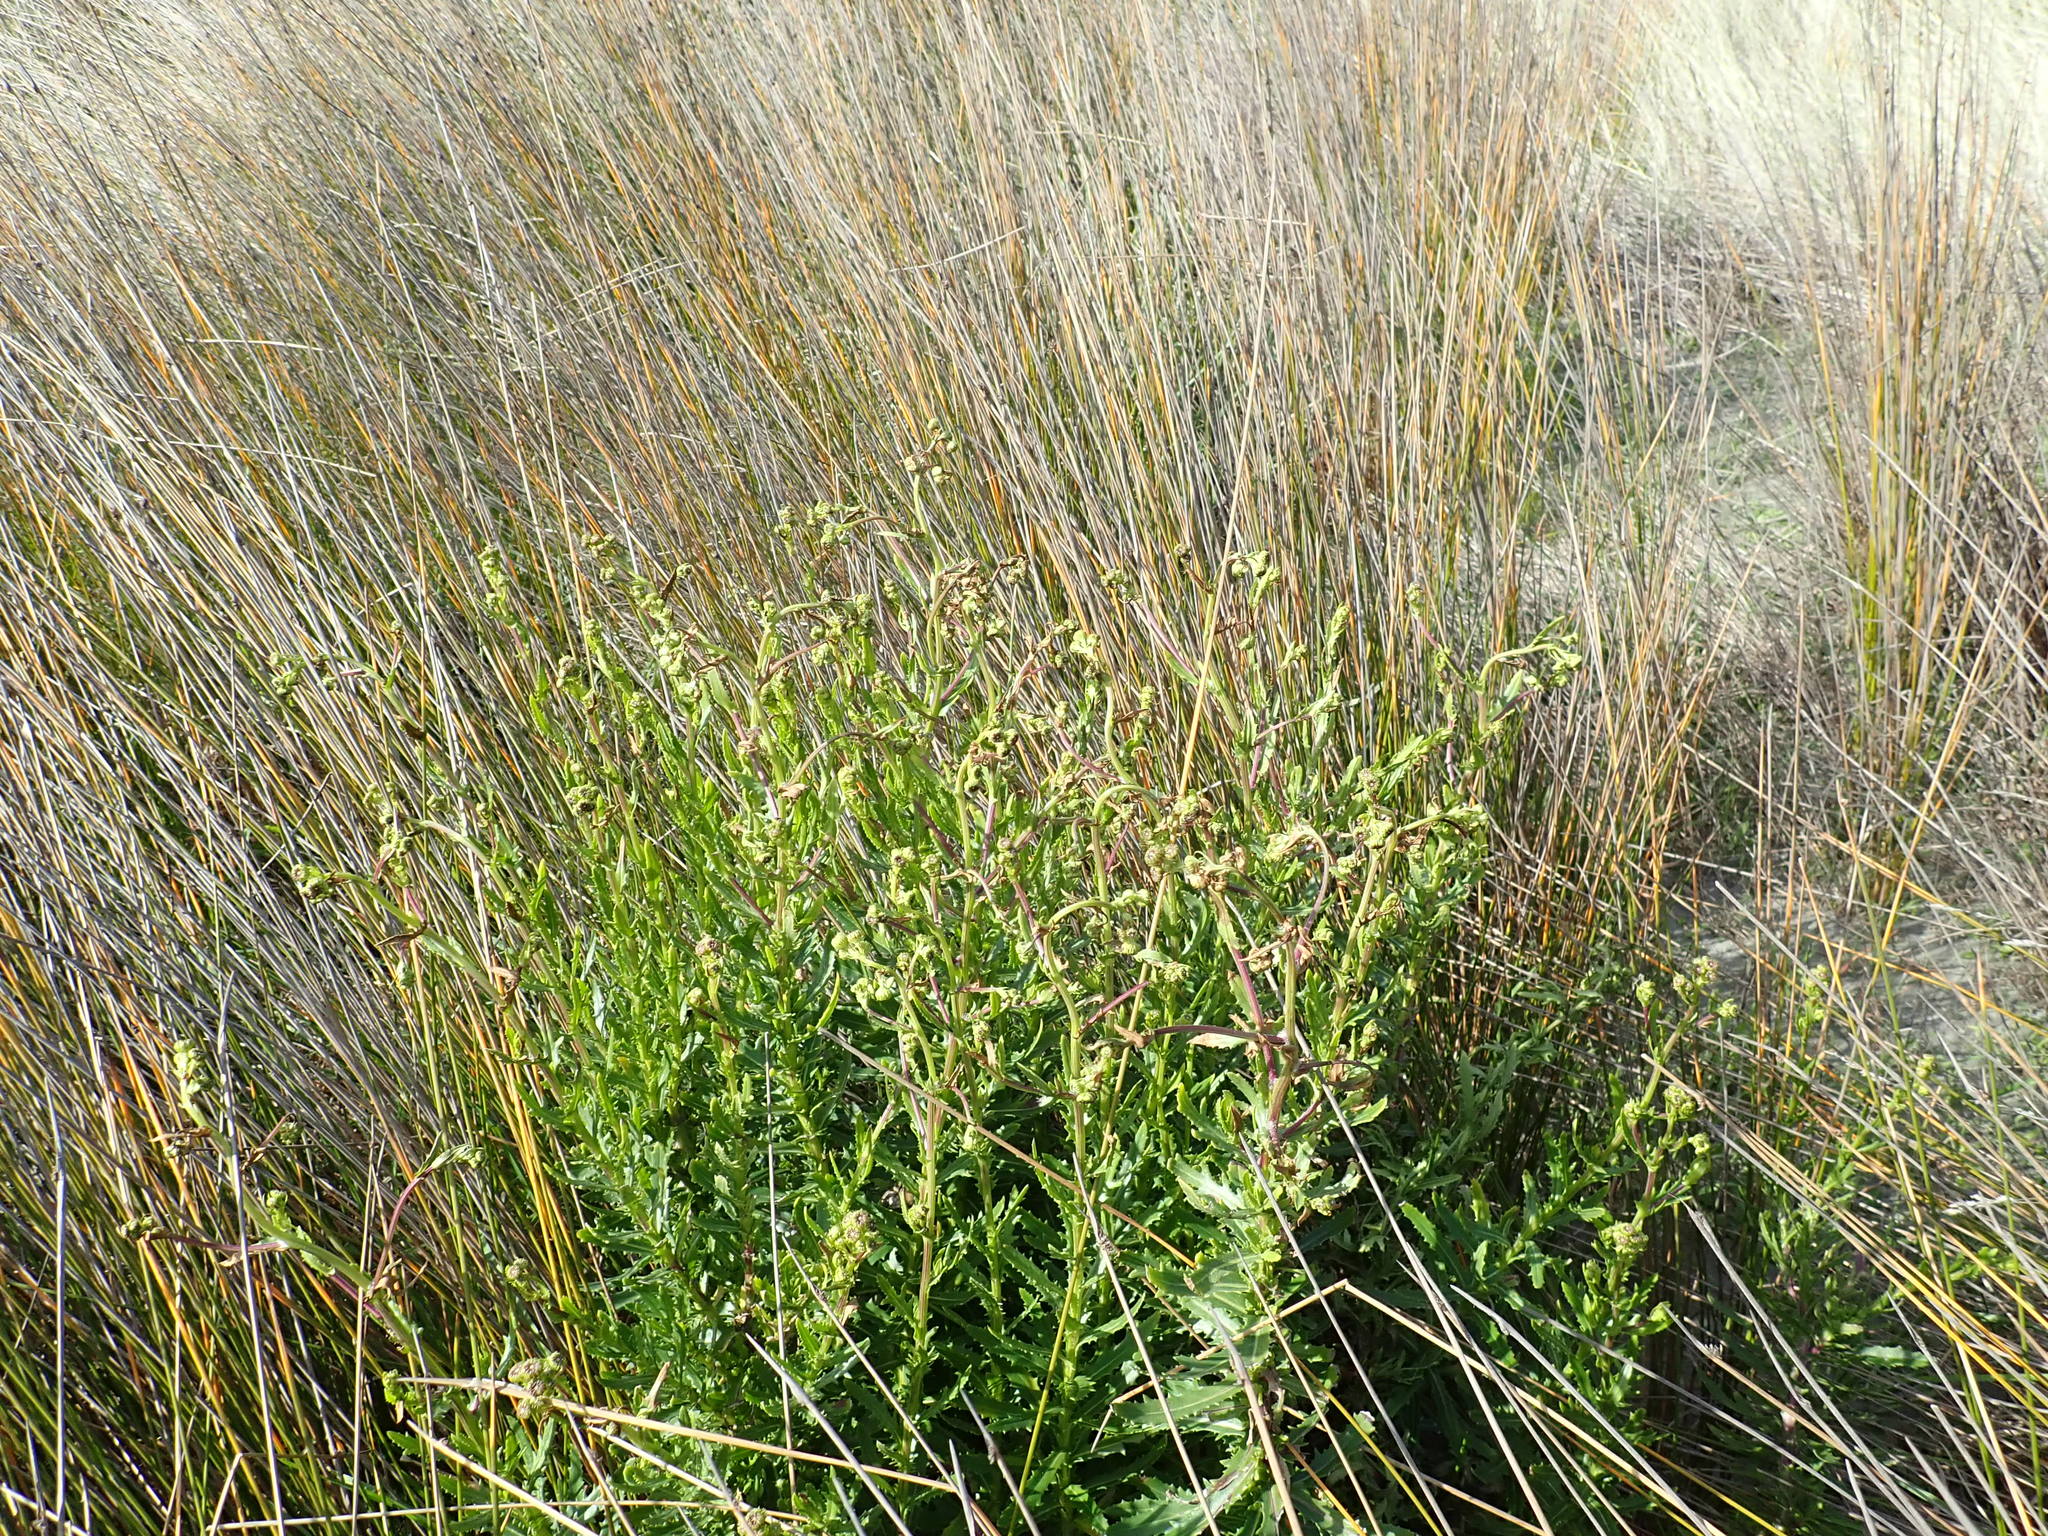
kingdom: Plantae
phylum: Tracheophyta
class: Magnoliopsida
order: Asterales
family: Asteraceae
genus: Senecio
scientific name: Senecio glastifolius
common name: Woad-leaved ragwort
